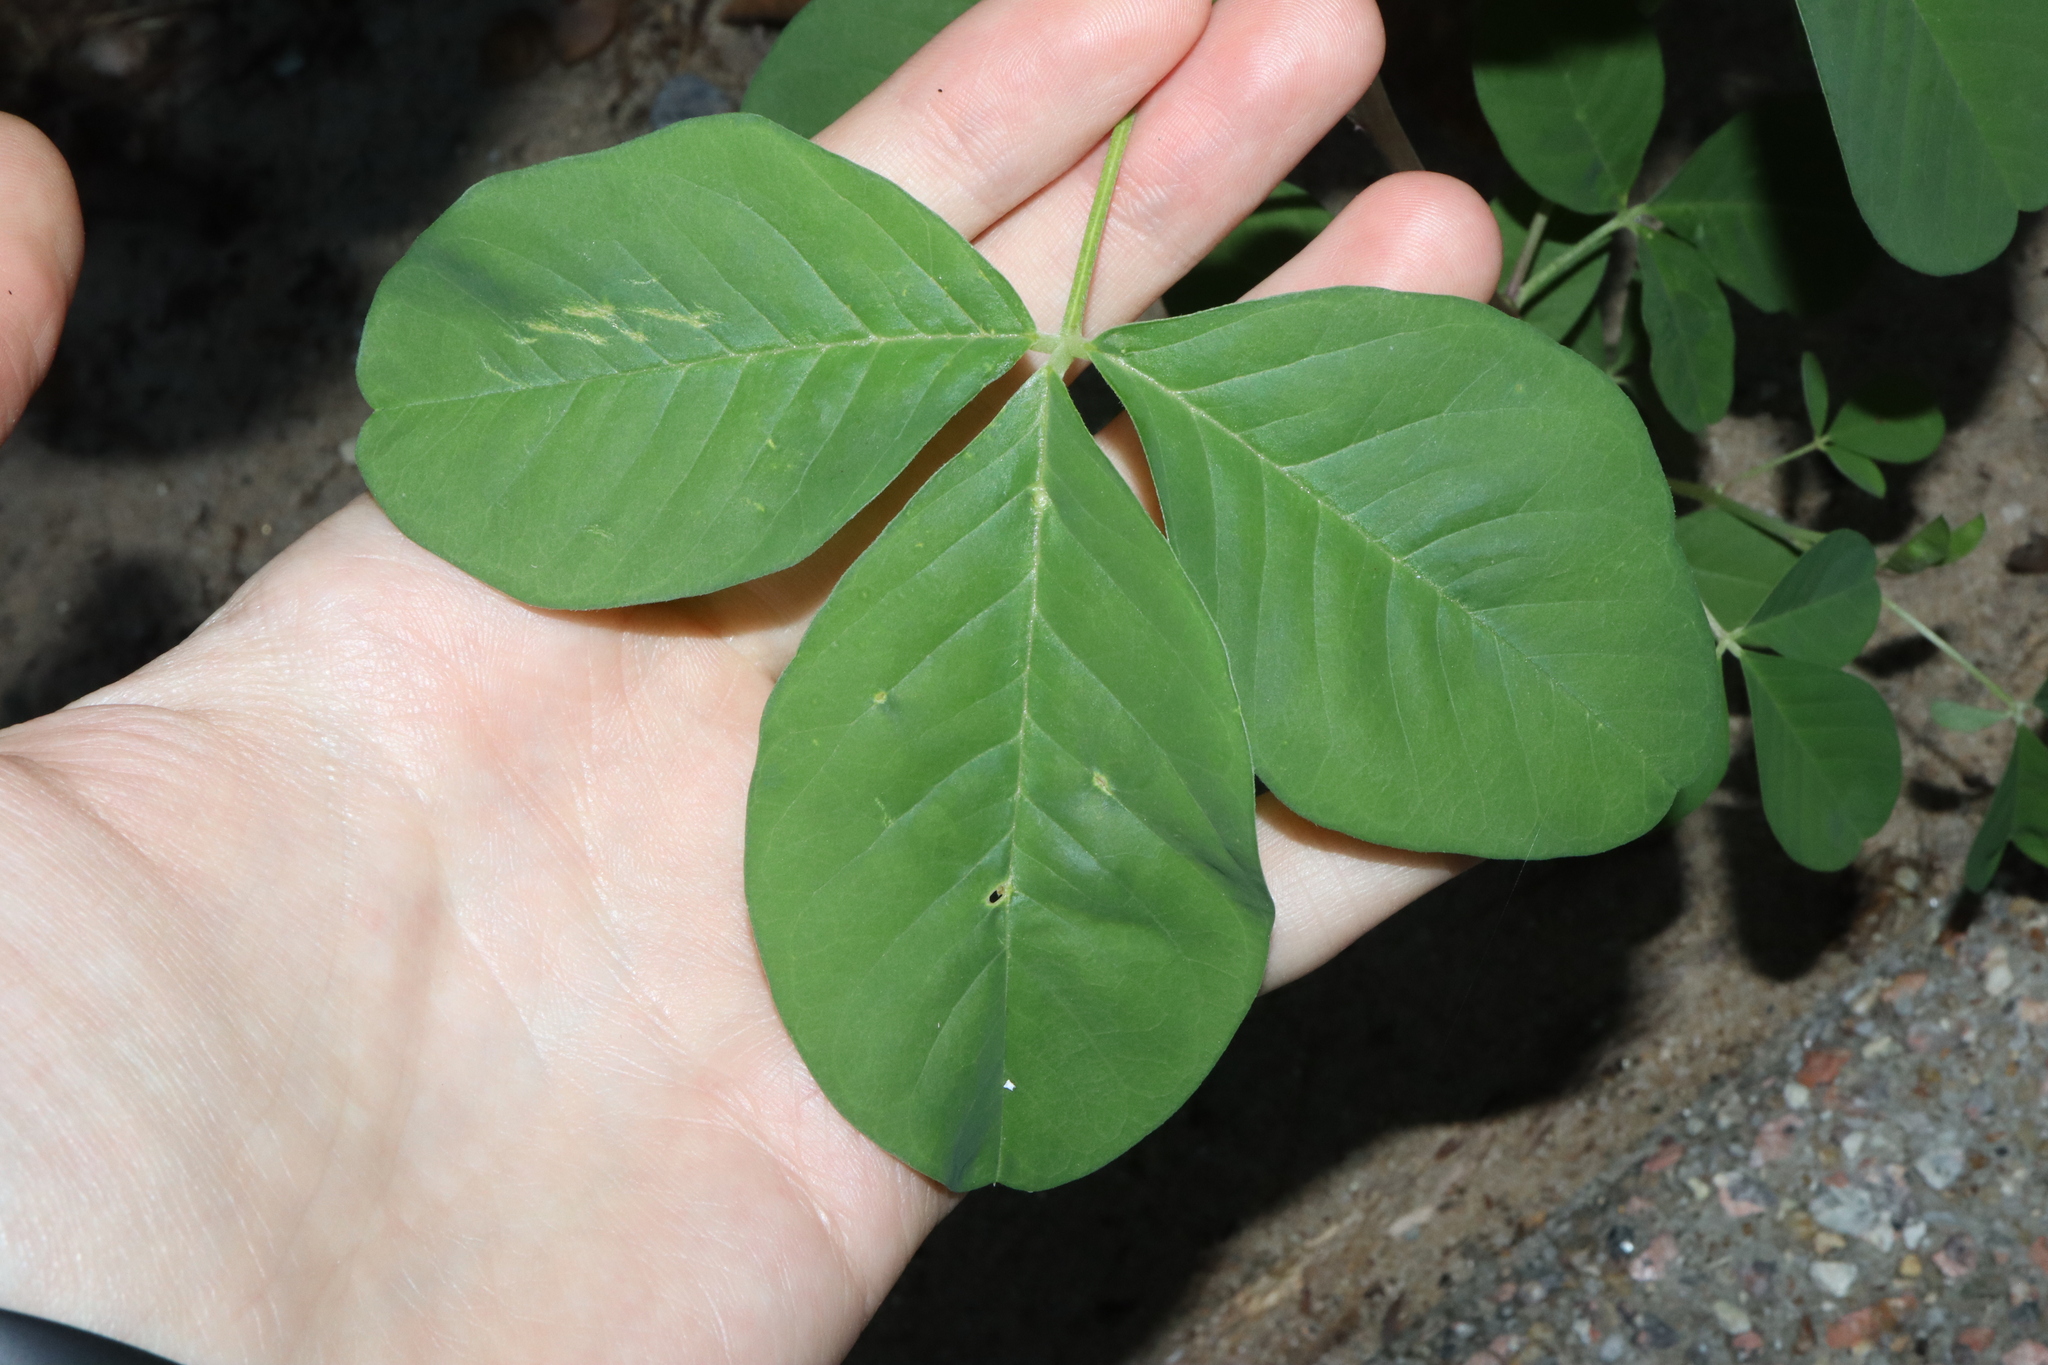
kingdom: Plantae
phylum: Tracheophyta
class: Magnoliopsida
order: Fabales
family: Fabaceae
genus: Crotalaria
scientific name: Crotalaria pallida
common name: Smooth rattlebox
